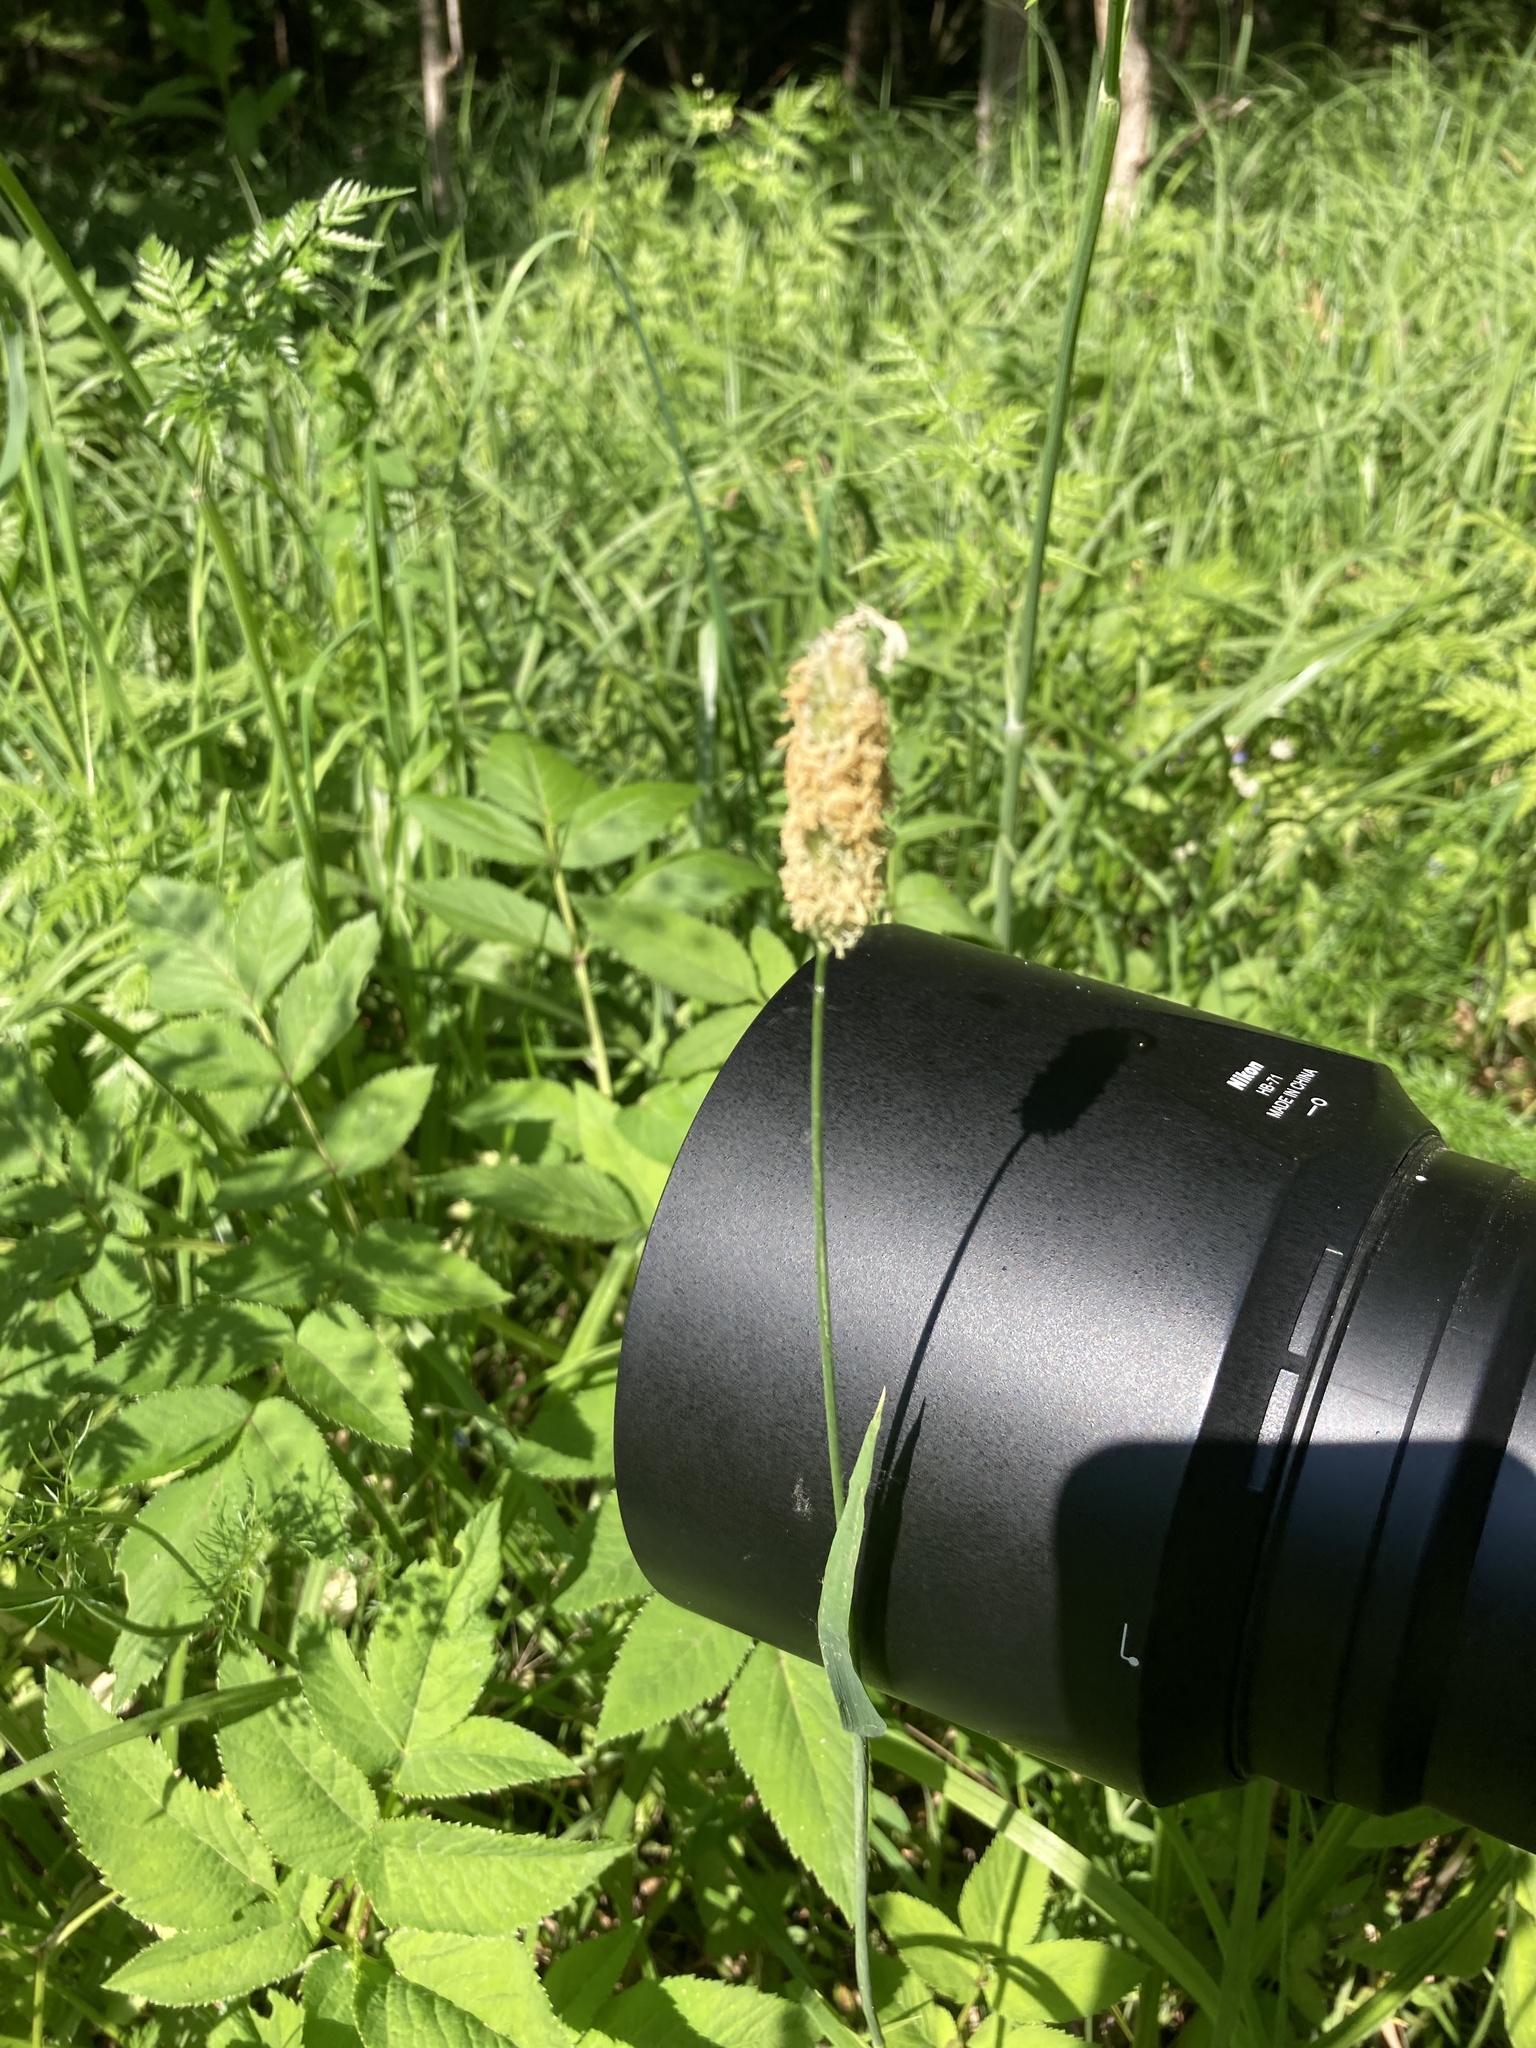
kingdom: Plantae
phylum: Tracheophyta
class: Liliopsida
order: Poales
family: Poaceae
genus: Alopecurus
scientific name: Alopecurus pratensis
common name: Meadow foxtail
